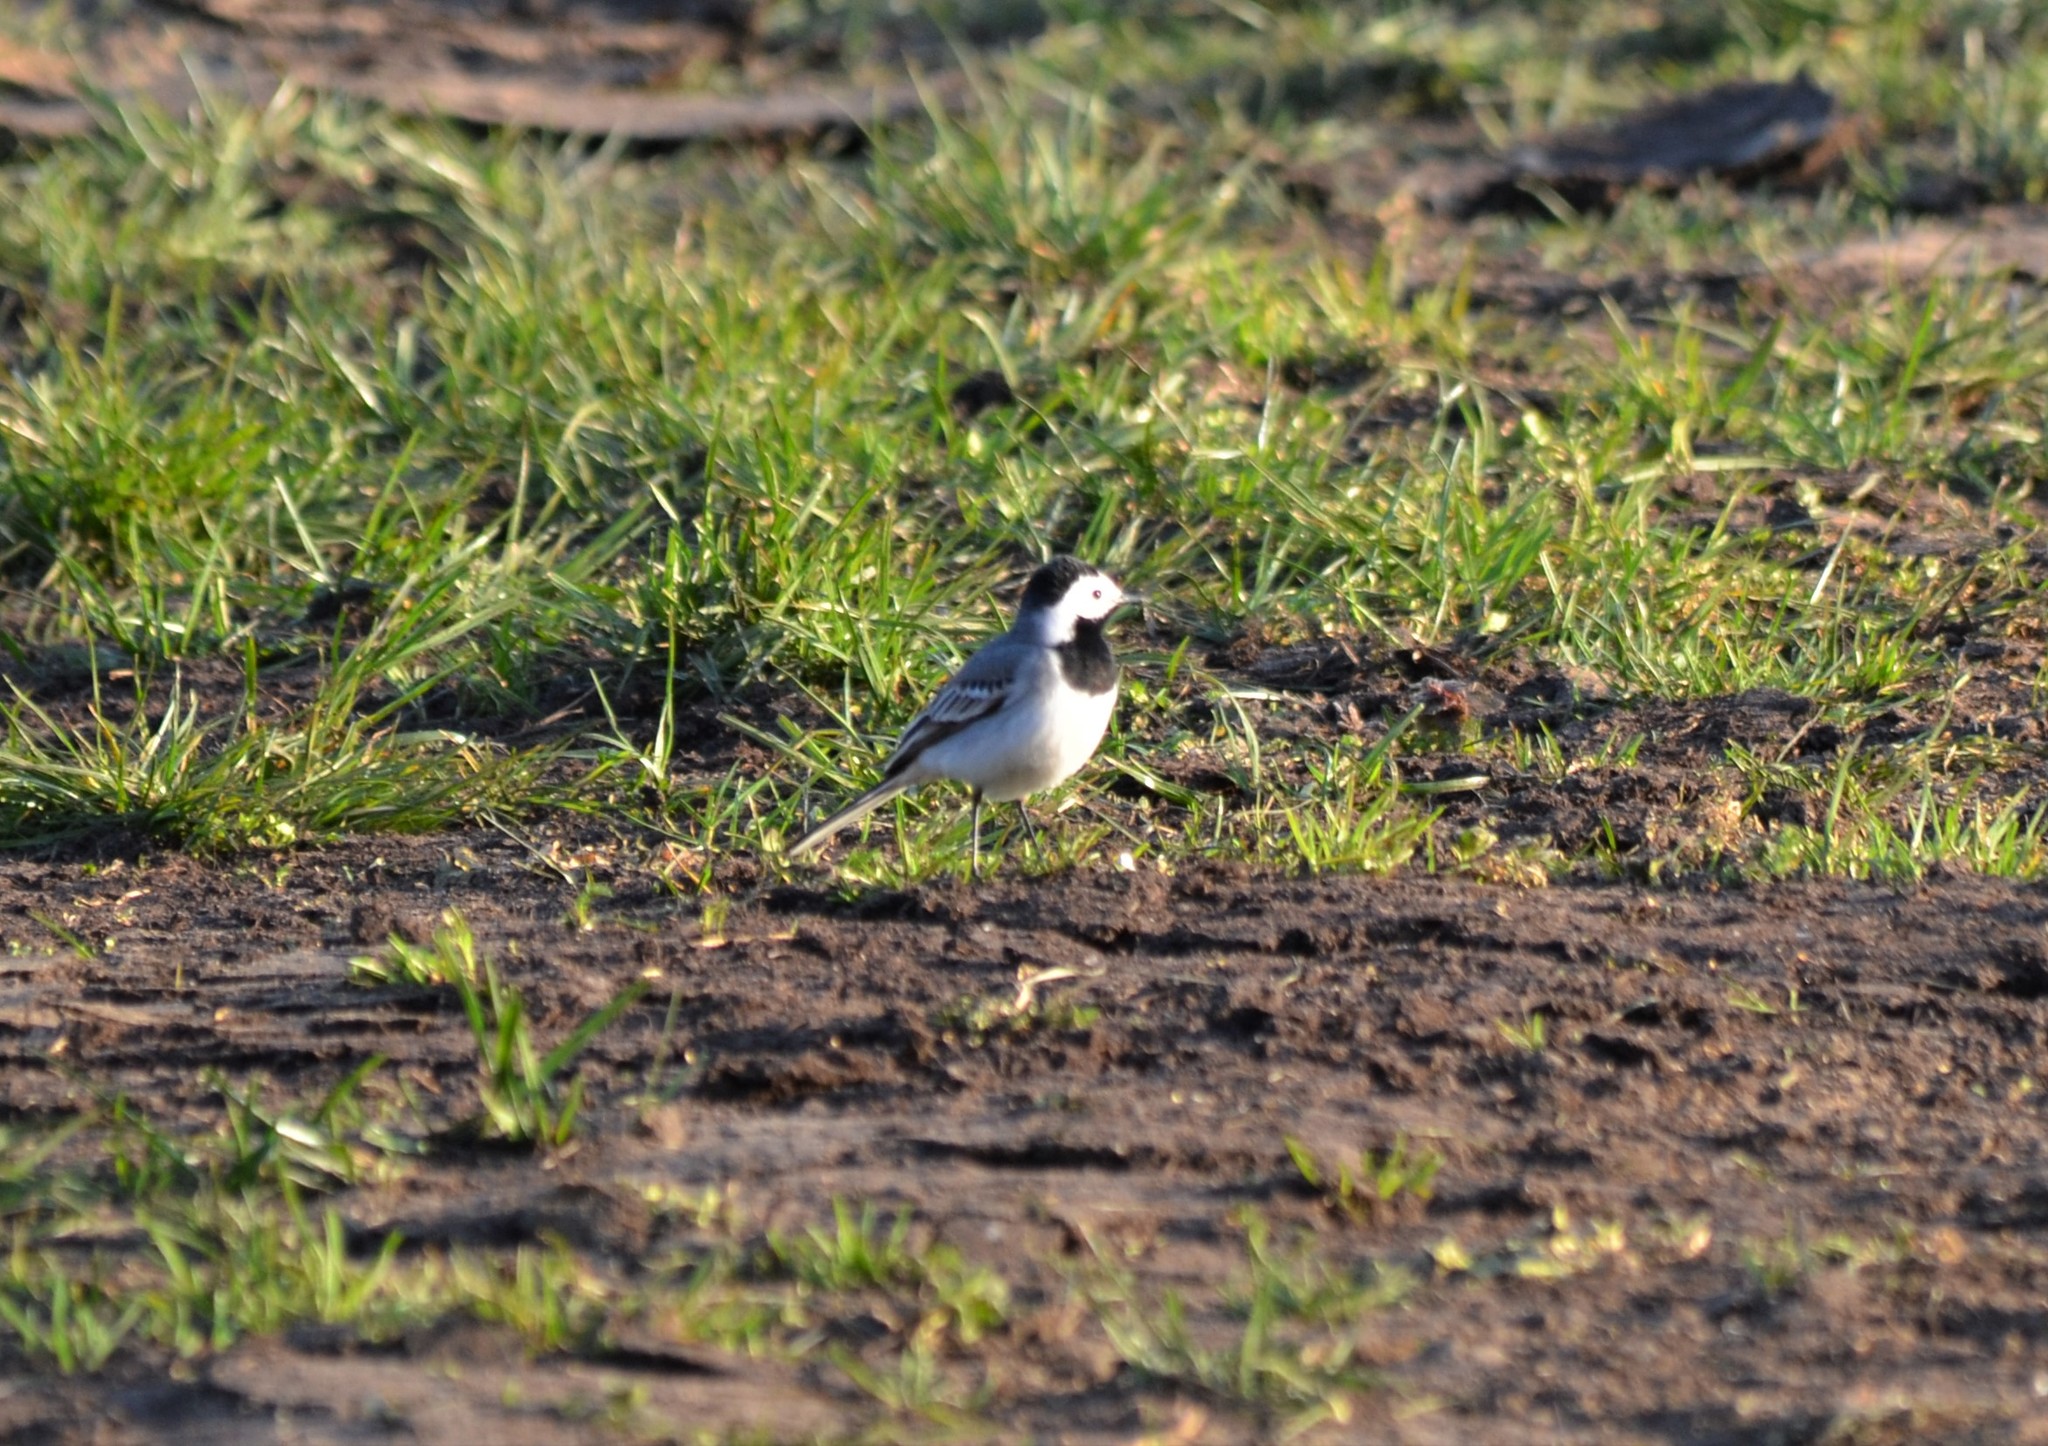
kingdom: Animalia
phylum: Chordata
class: Aves
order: Passeriformes
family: Motacillidae
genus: Motacilla
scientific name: Motacilla alba
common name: White wagtail
